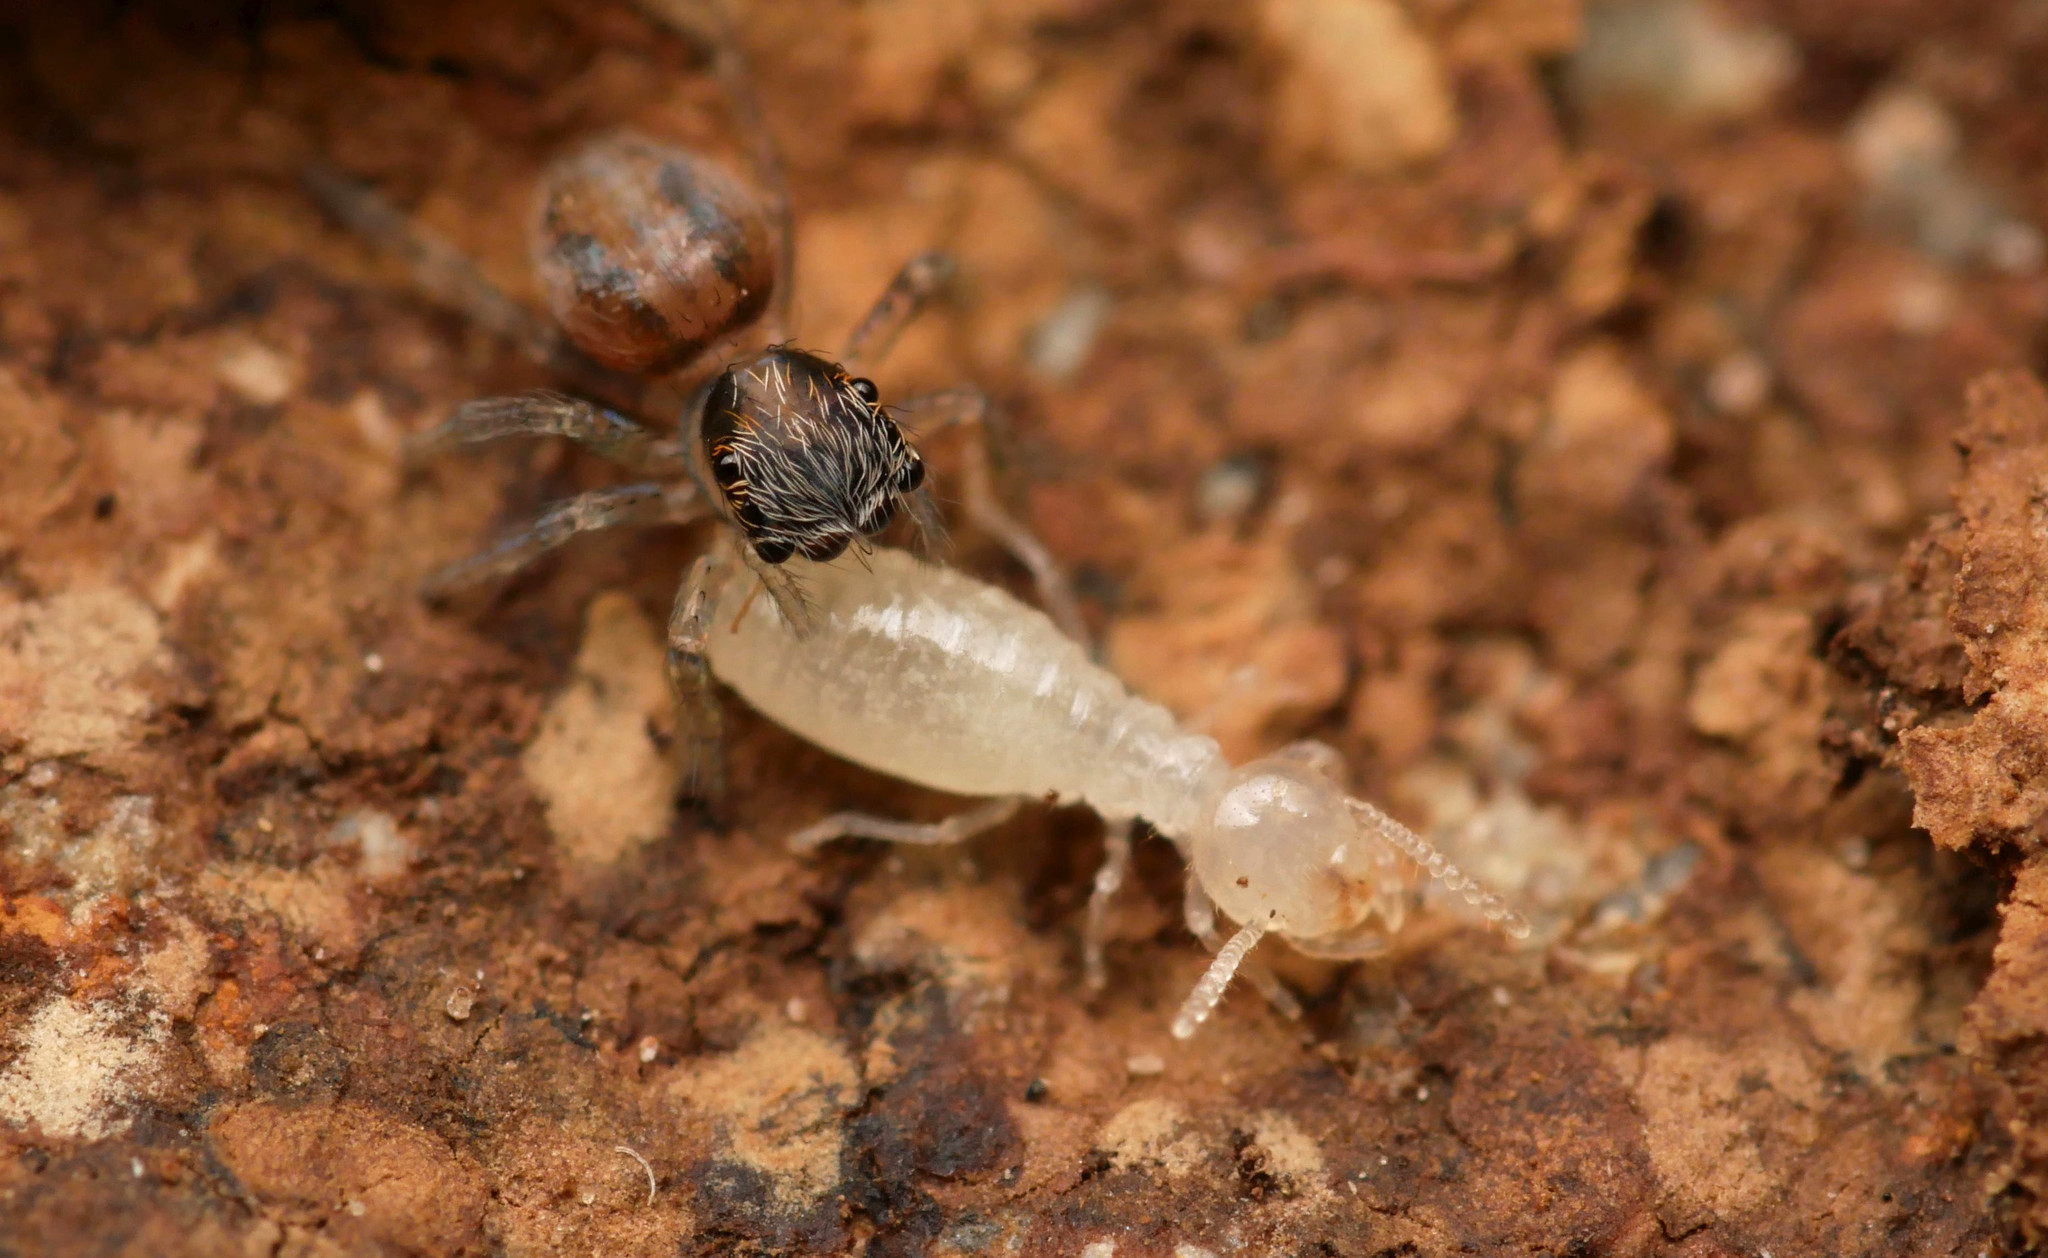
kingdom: Animalia
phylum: Arthropoda
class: Arachnida
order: Araneae
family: Salticidae
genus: Saitis
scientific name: Saitis barbipes
